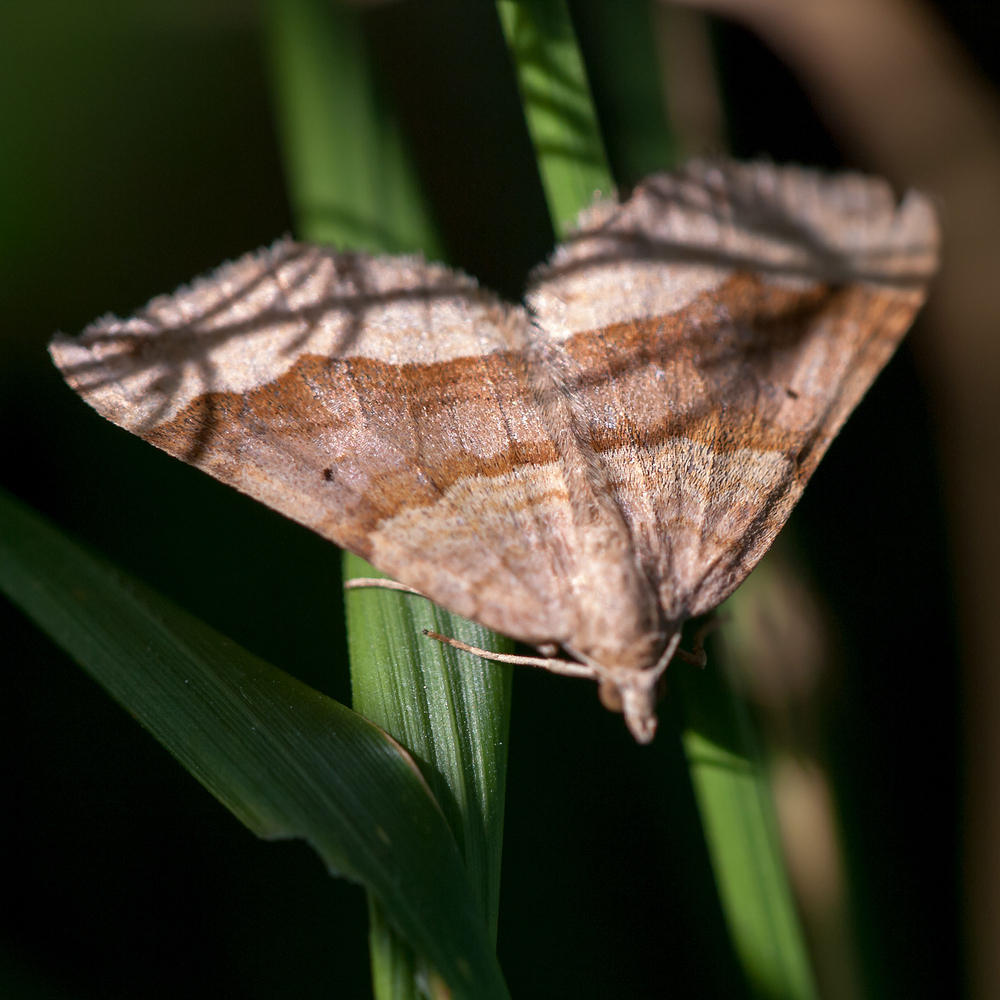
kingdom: Animalia
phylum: Arthropoda
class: Insecta
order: Lepidoptera
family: Geometridae
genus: Scotopteryx
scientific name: Scotopteryx chenopodiata
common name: Shaded broad-bar
